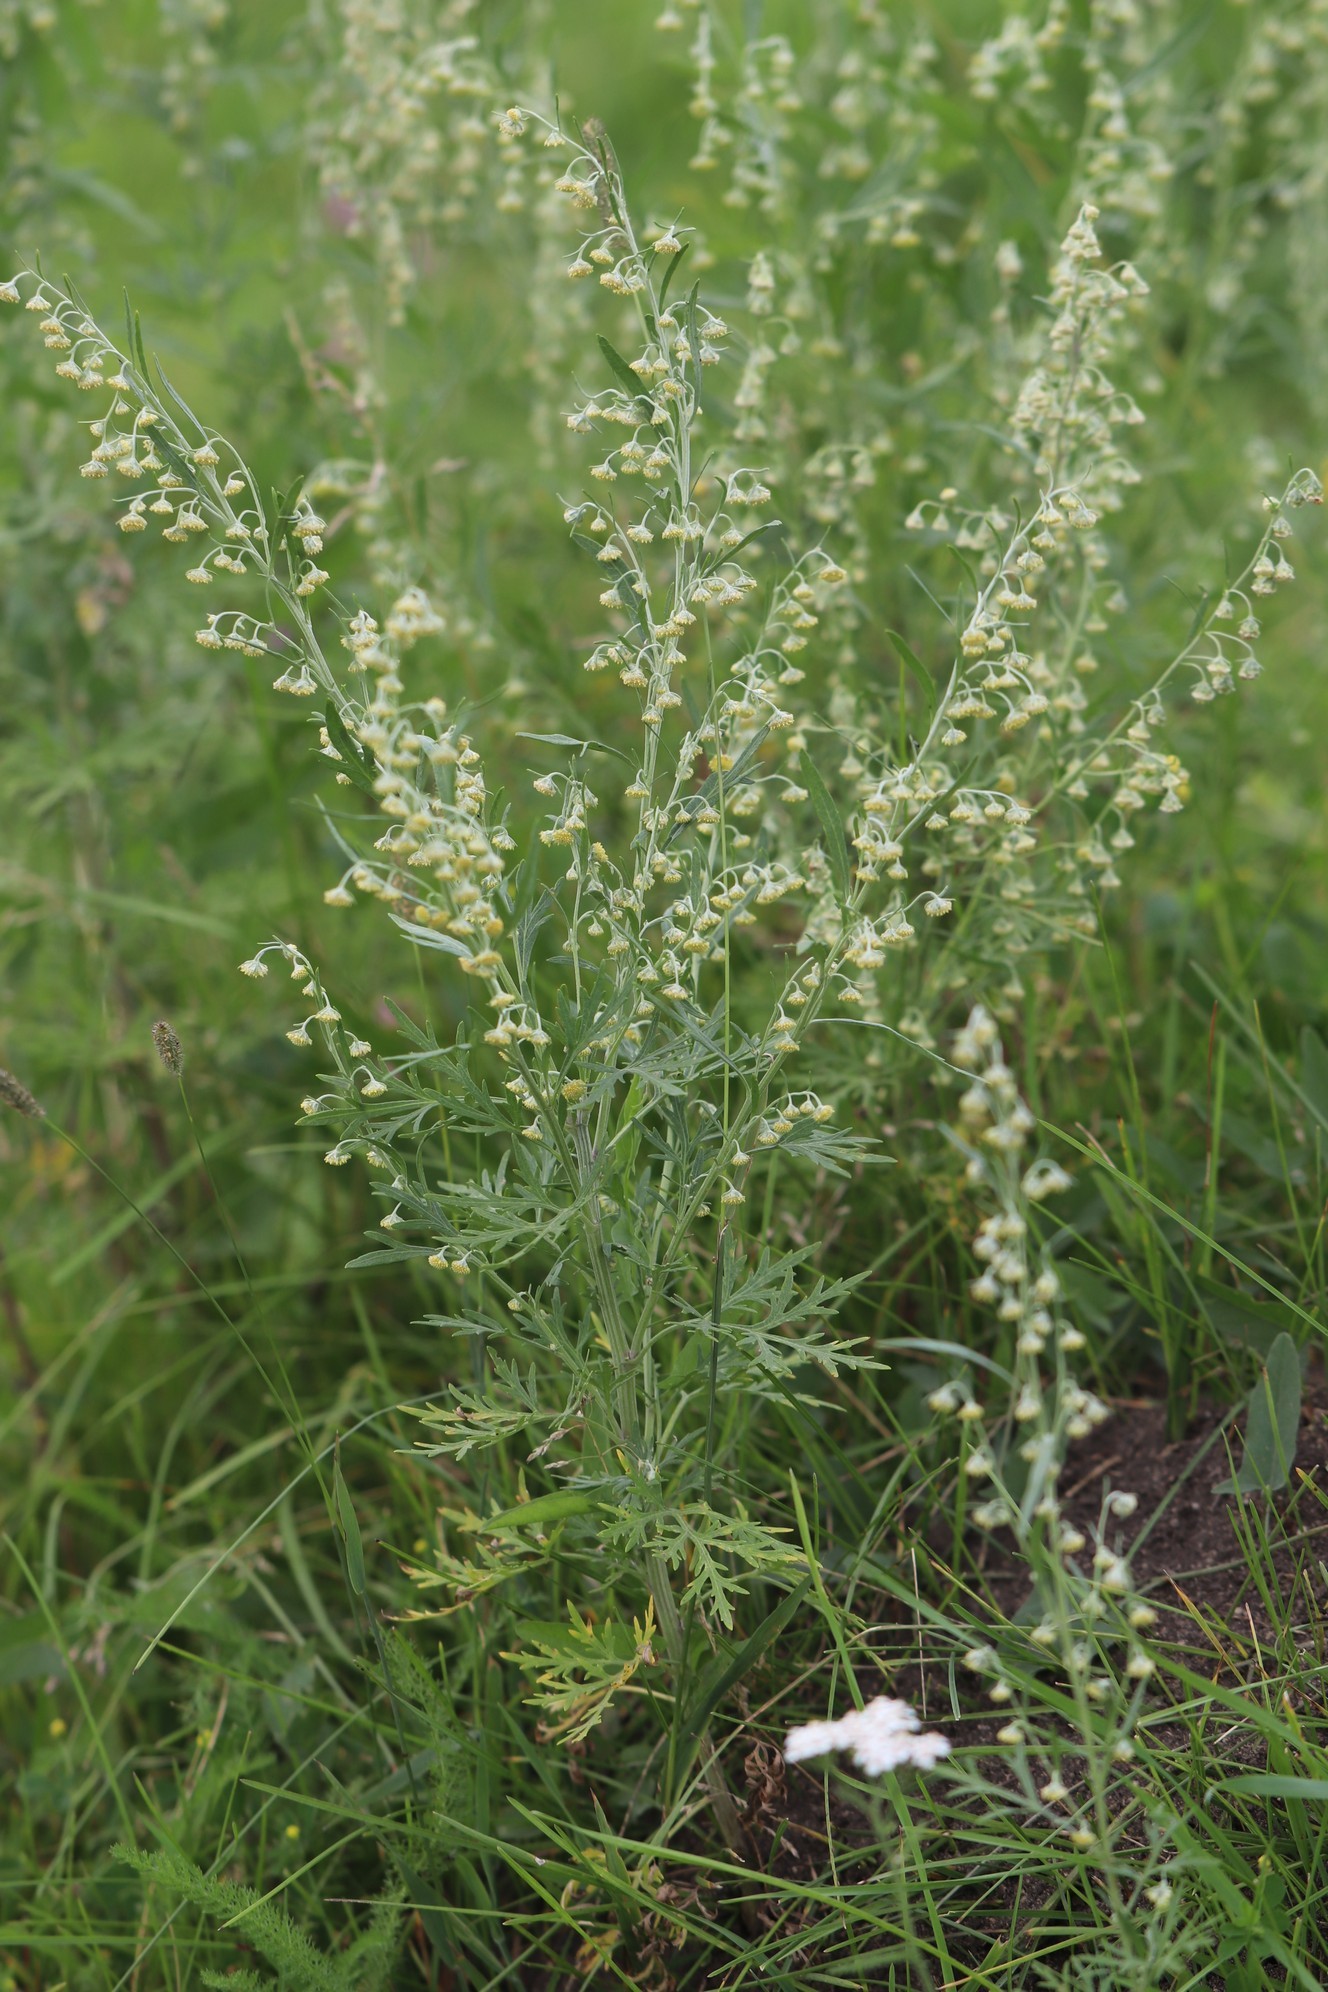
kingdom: Plantae
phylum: Tracheophyta
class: Magnoliopsida
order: Asterales
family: Asteraceae
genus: Artemisia
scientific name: Artemisia sieversiana
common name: Sieversian wormwood
